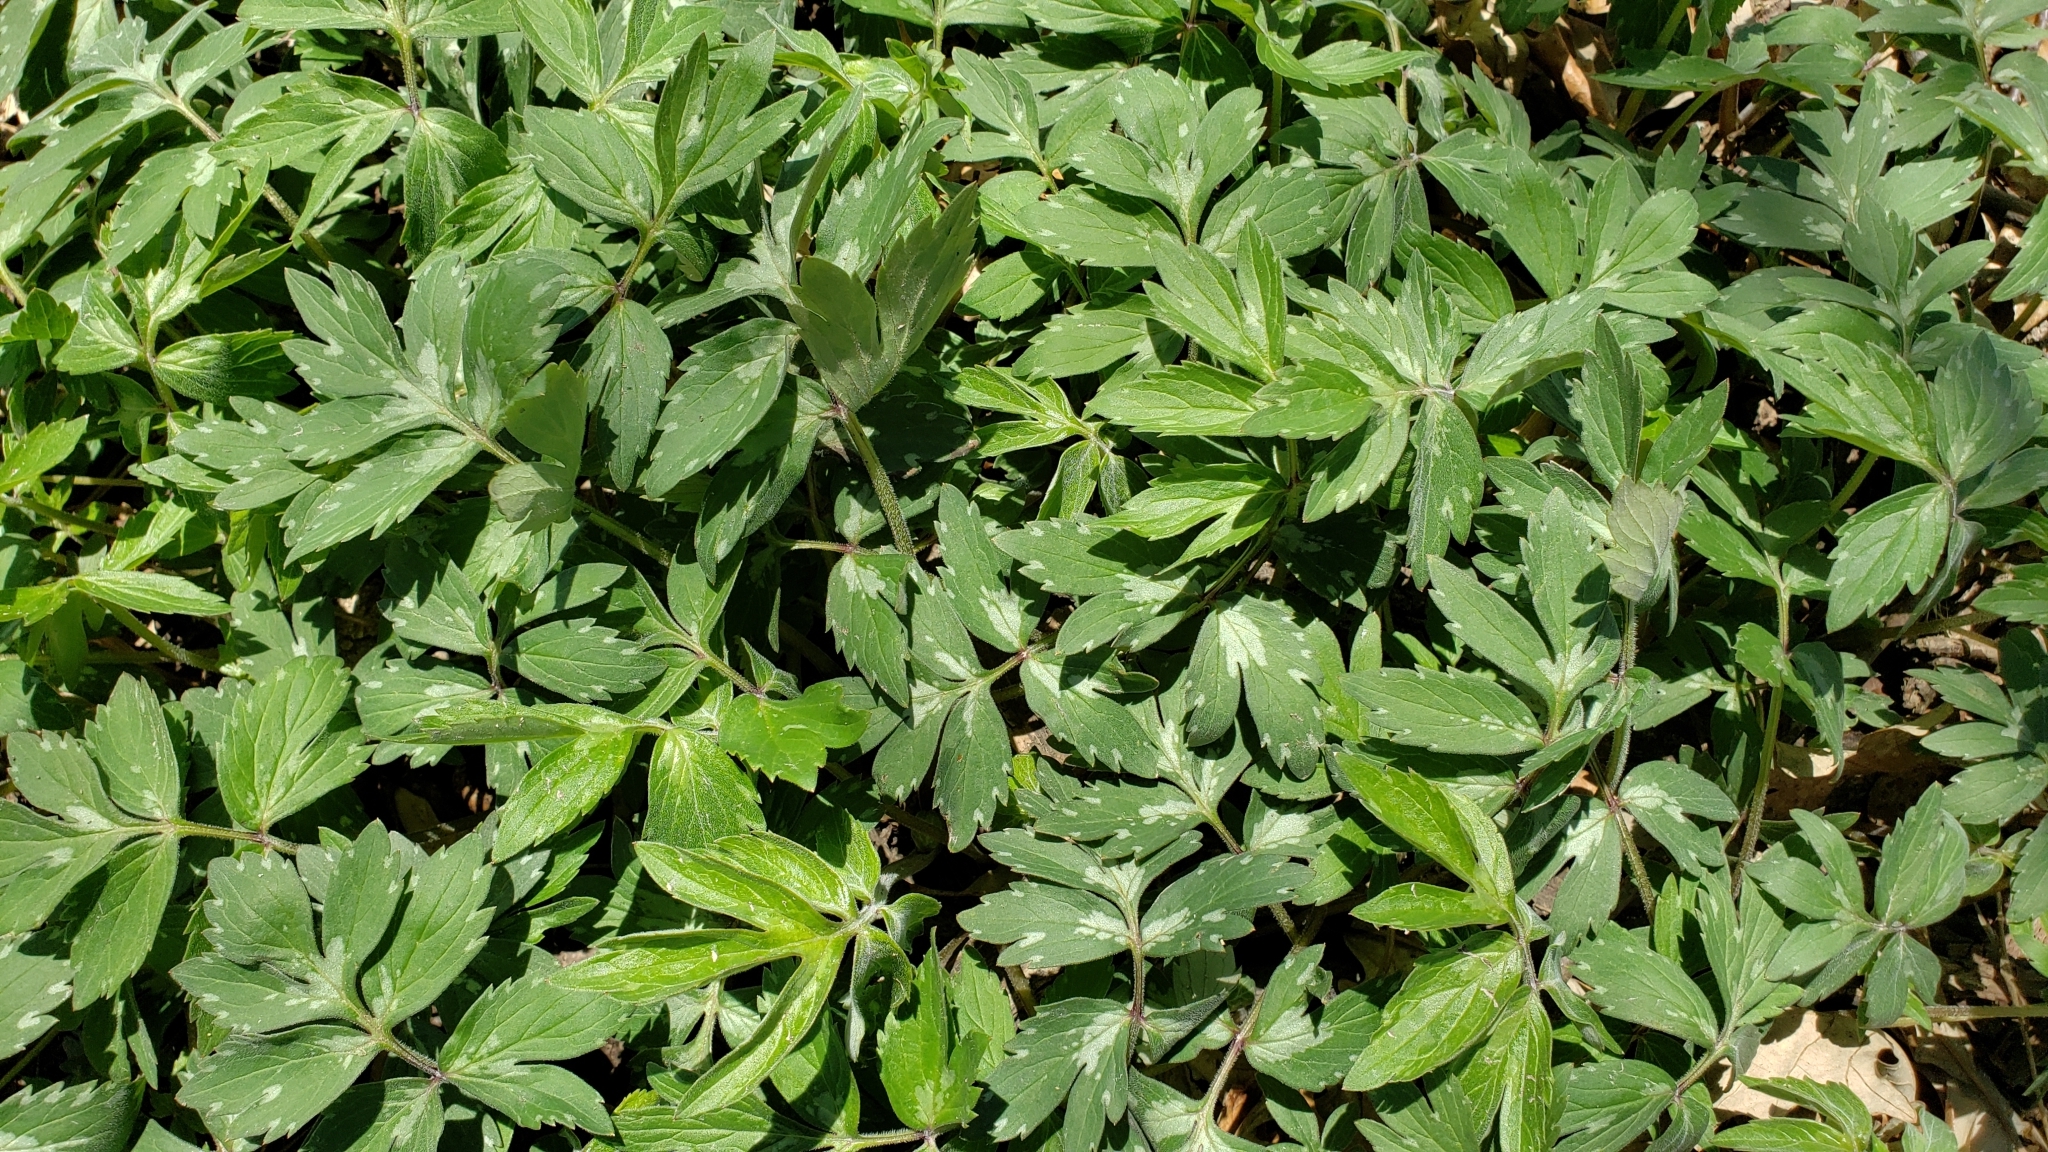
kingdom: Plantae
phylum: Tracheophyta
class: Magnoliopsida
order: Boraginales
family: Hydrophyllaceae
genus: Hydrophyllum
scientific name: Hydrophyllum virginianum
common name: Virginia waterleaf
